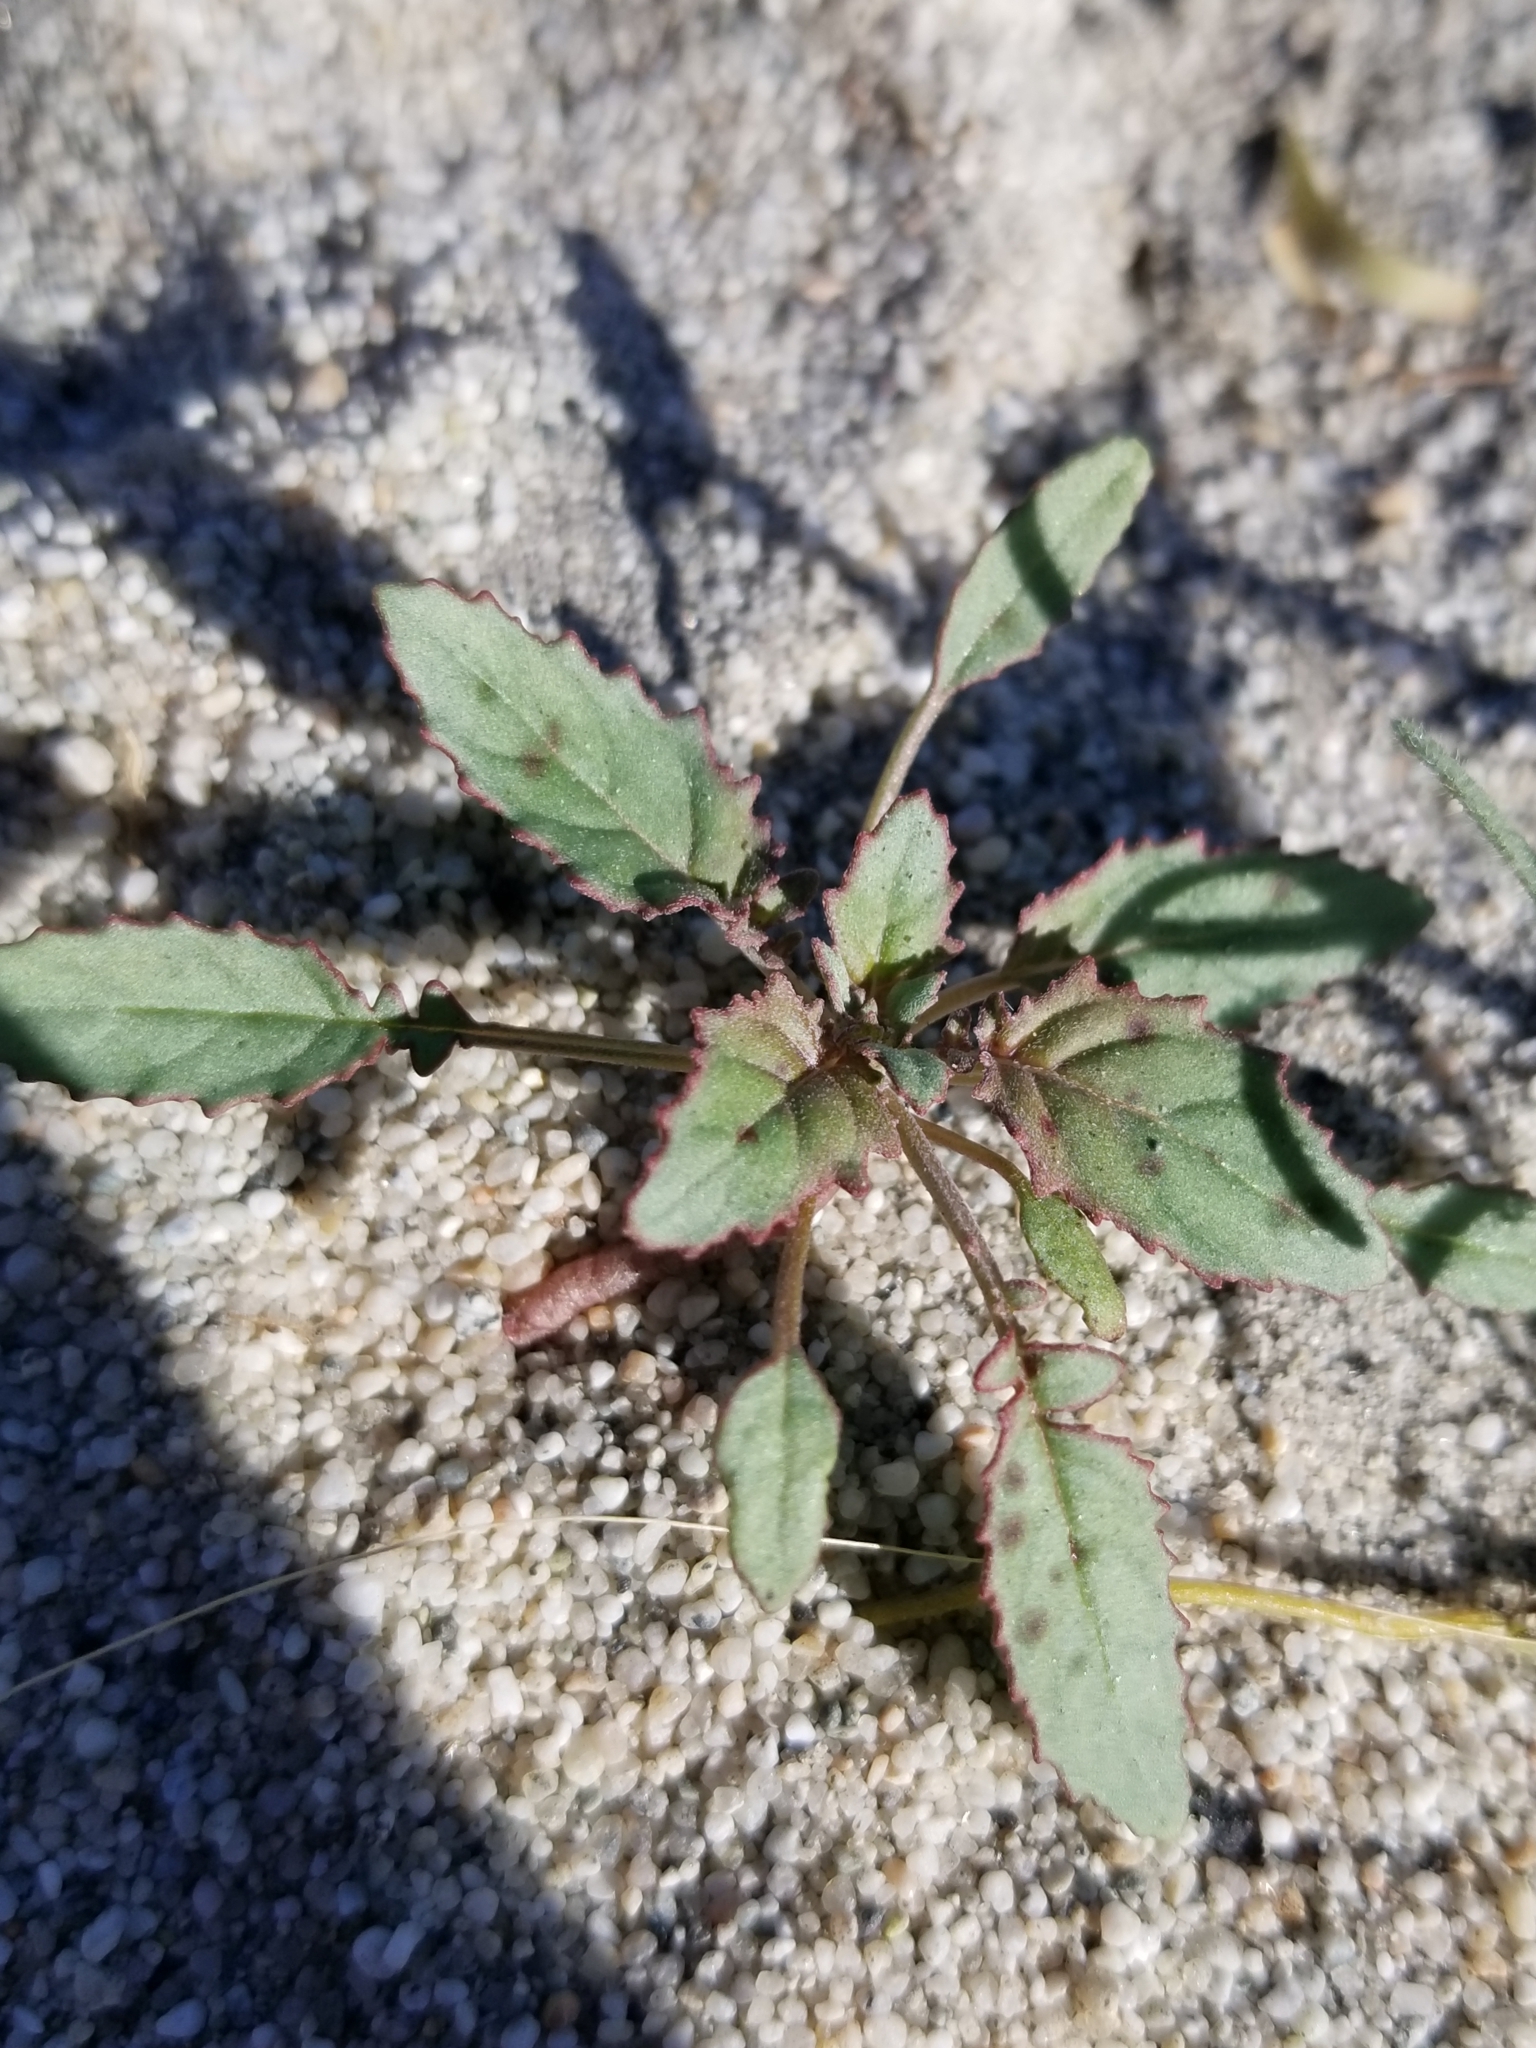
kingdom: Plantae
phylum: Tracheophyta
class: Magnoliopsida
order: Myrtales
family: Onagraceae
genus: Chylismia
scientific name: Chylismia claviformis
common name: Browneyes
